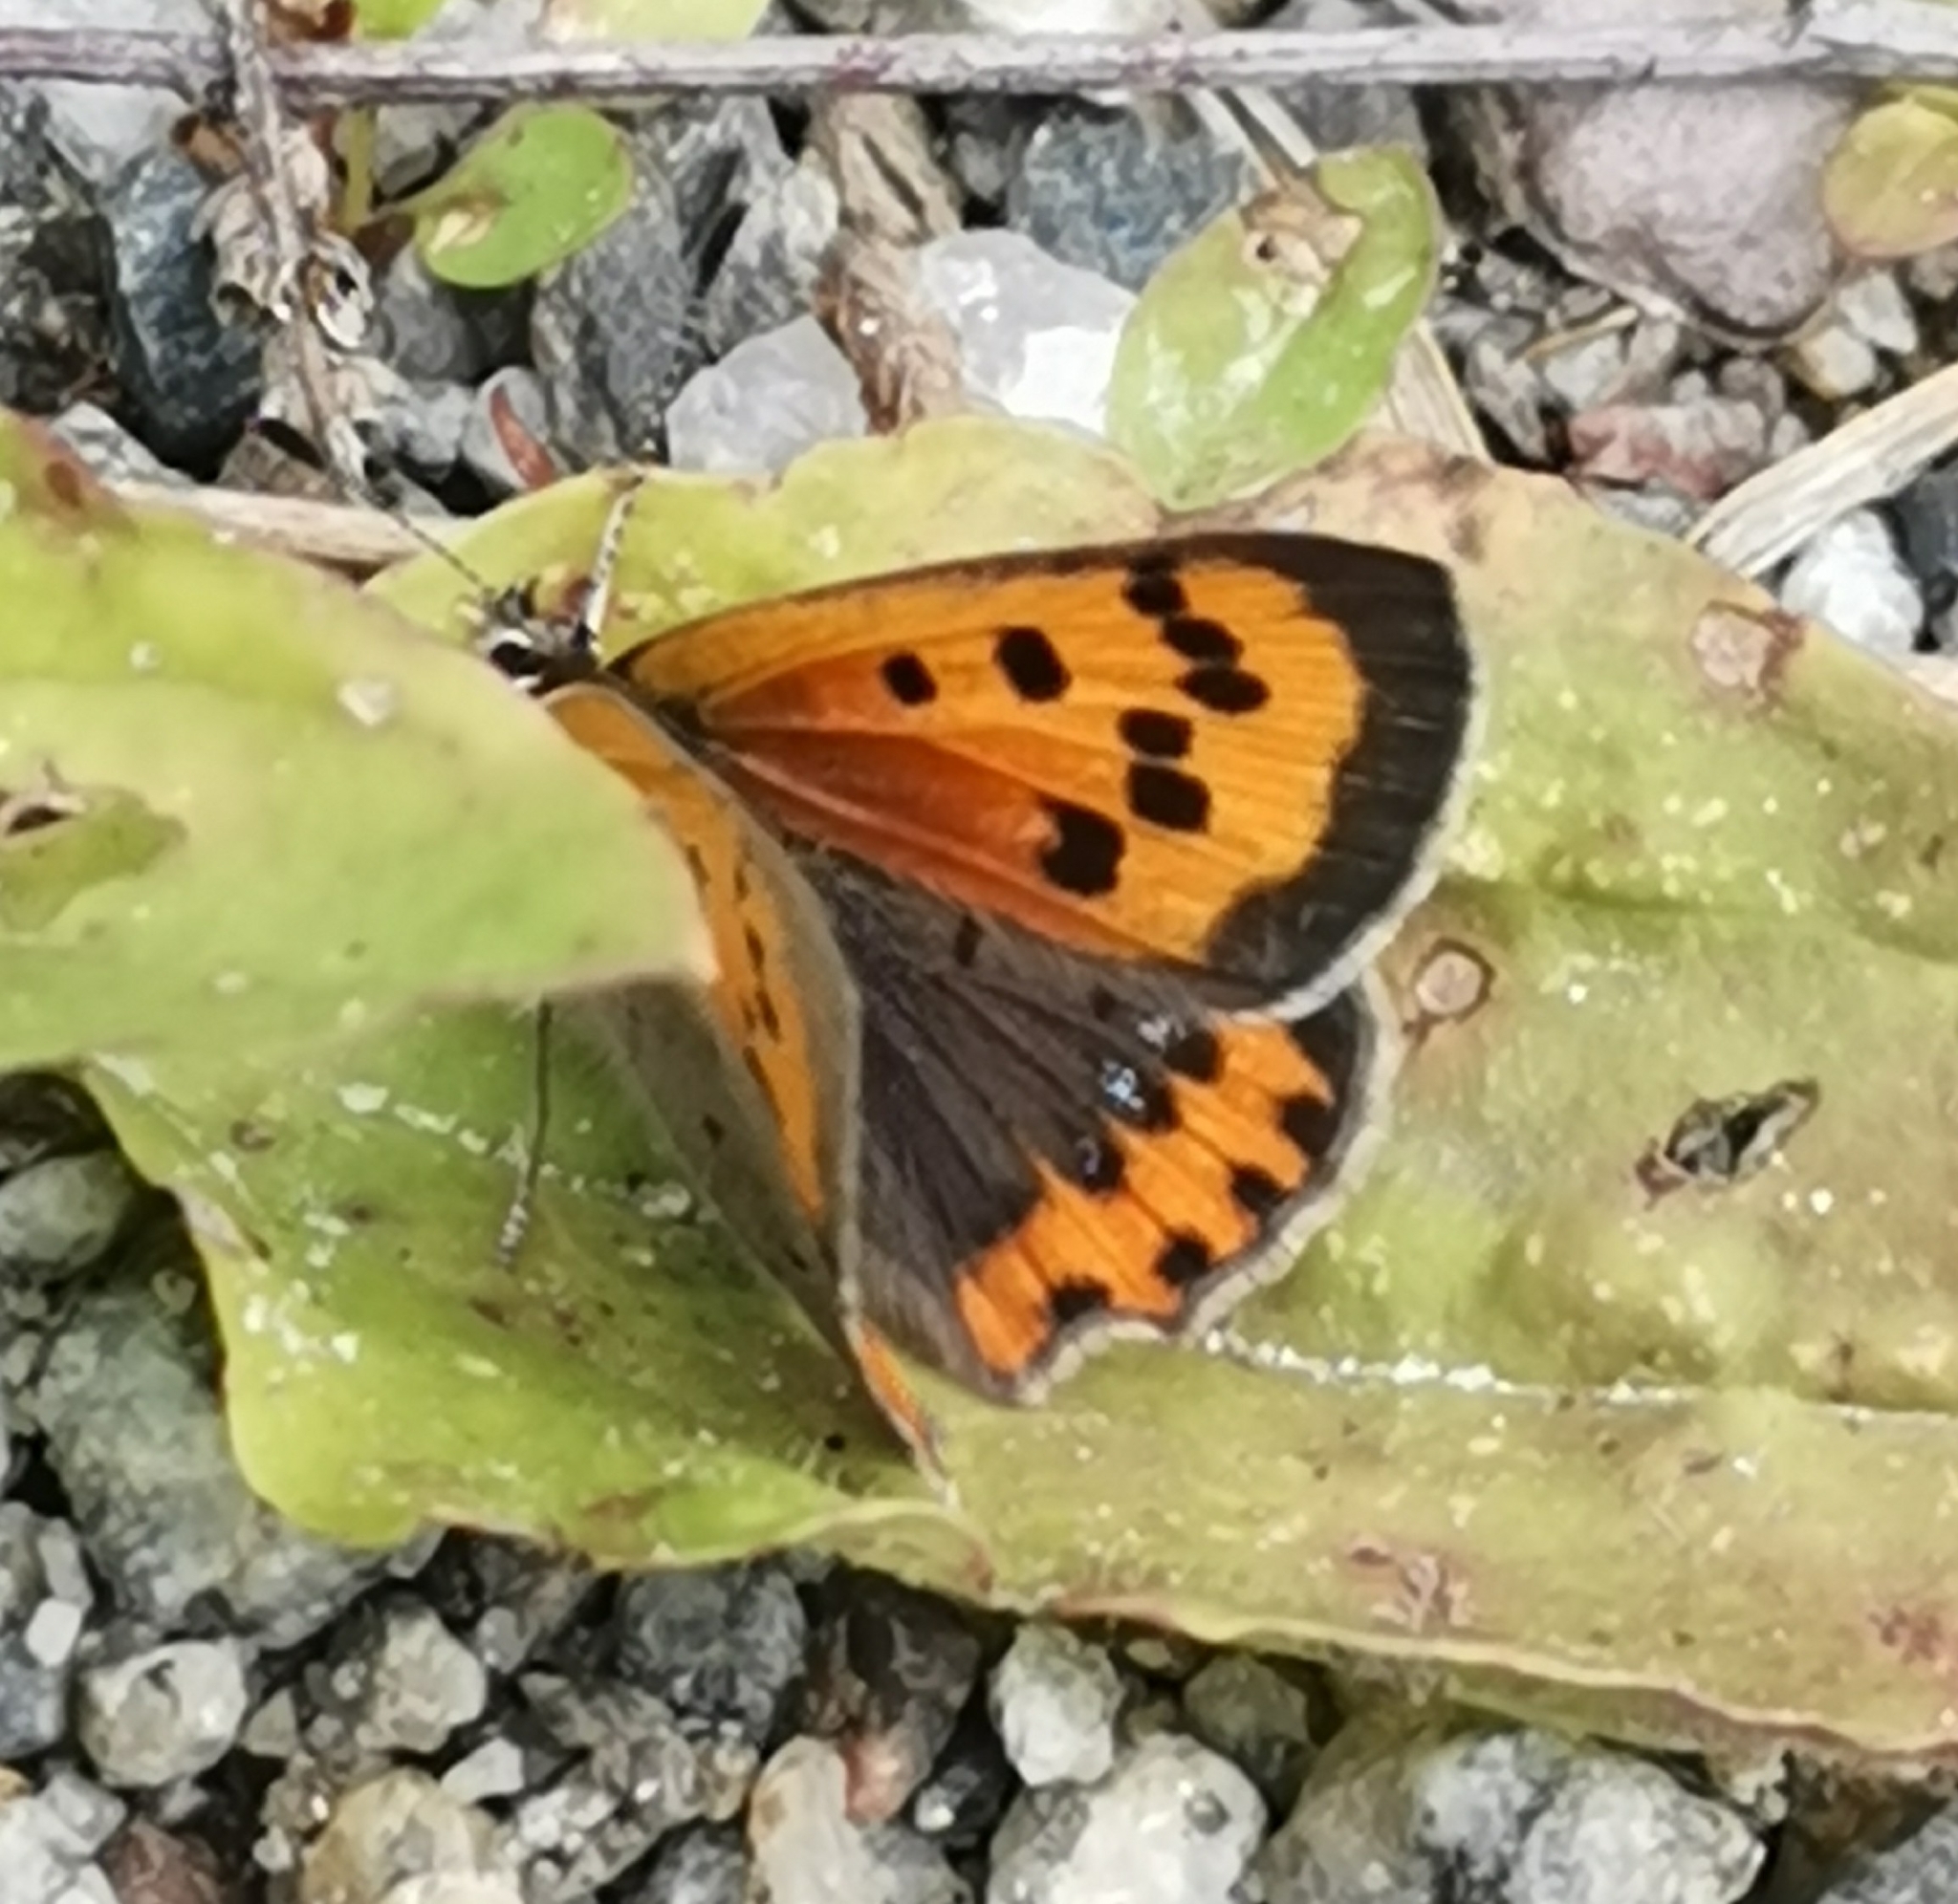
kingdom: Animalia
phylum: Arthropoda
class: Insecta
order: Lepidoptera
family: Lycaenidae
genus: Lycaena
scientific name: Lycaena phlaeas
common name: Small copper
